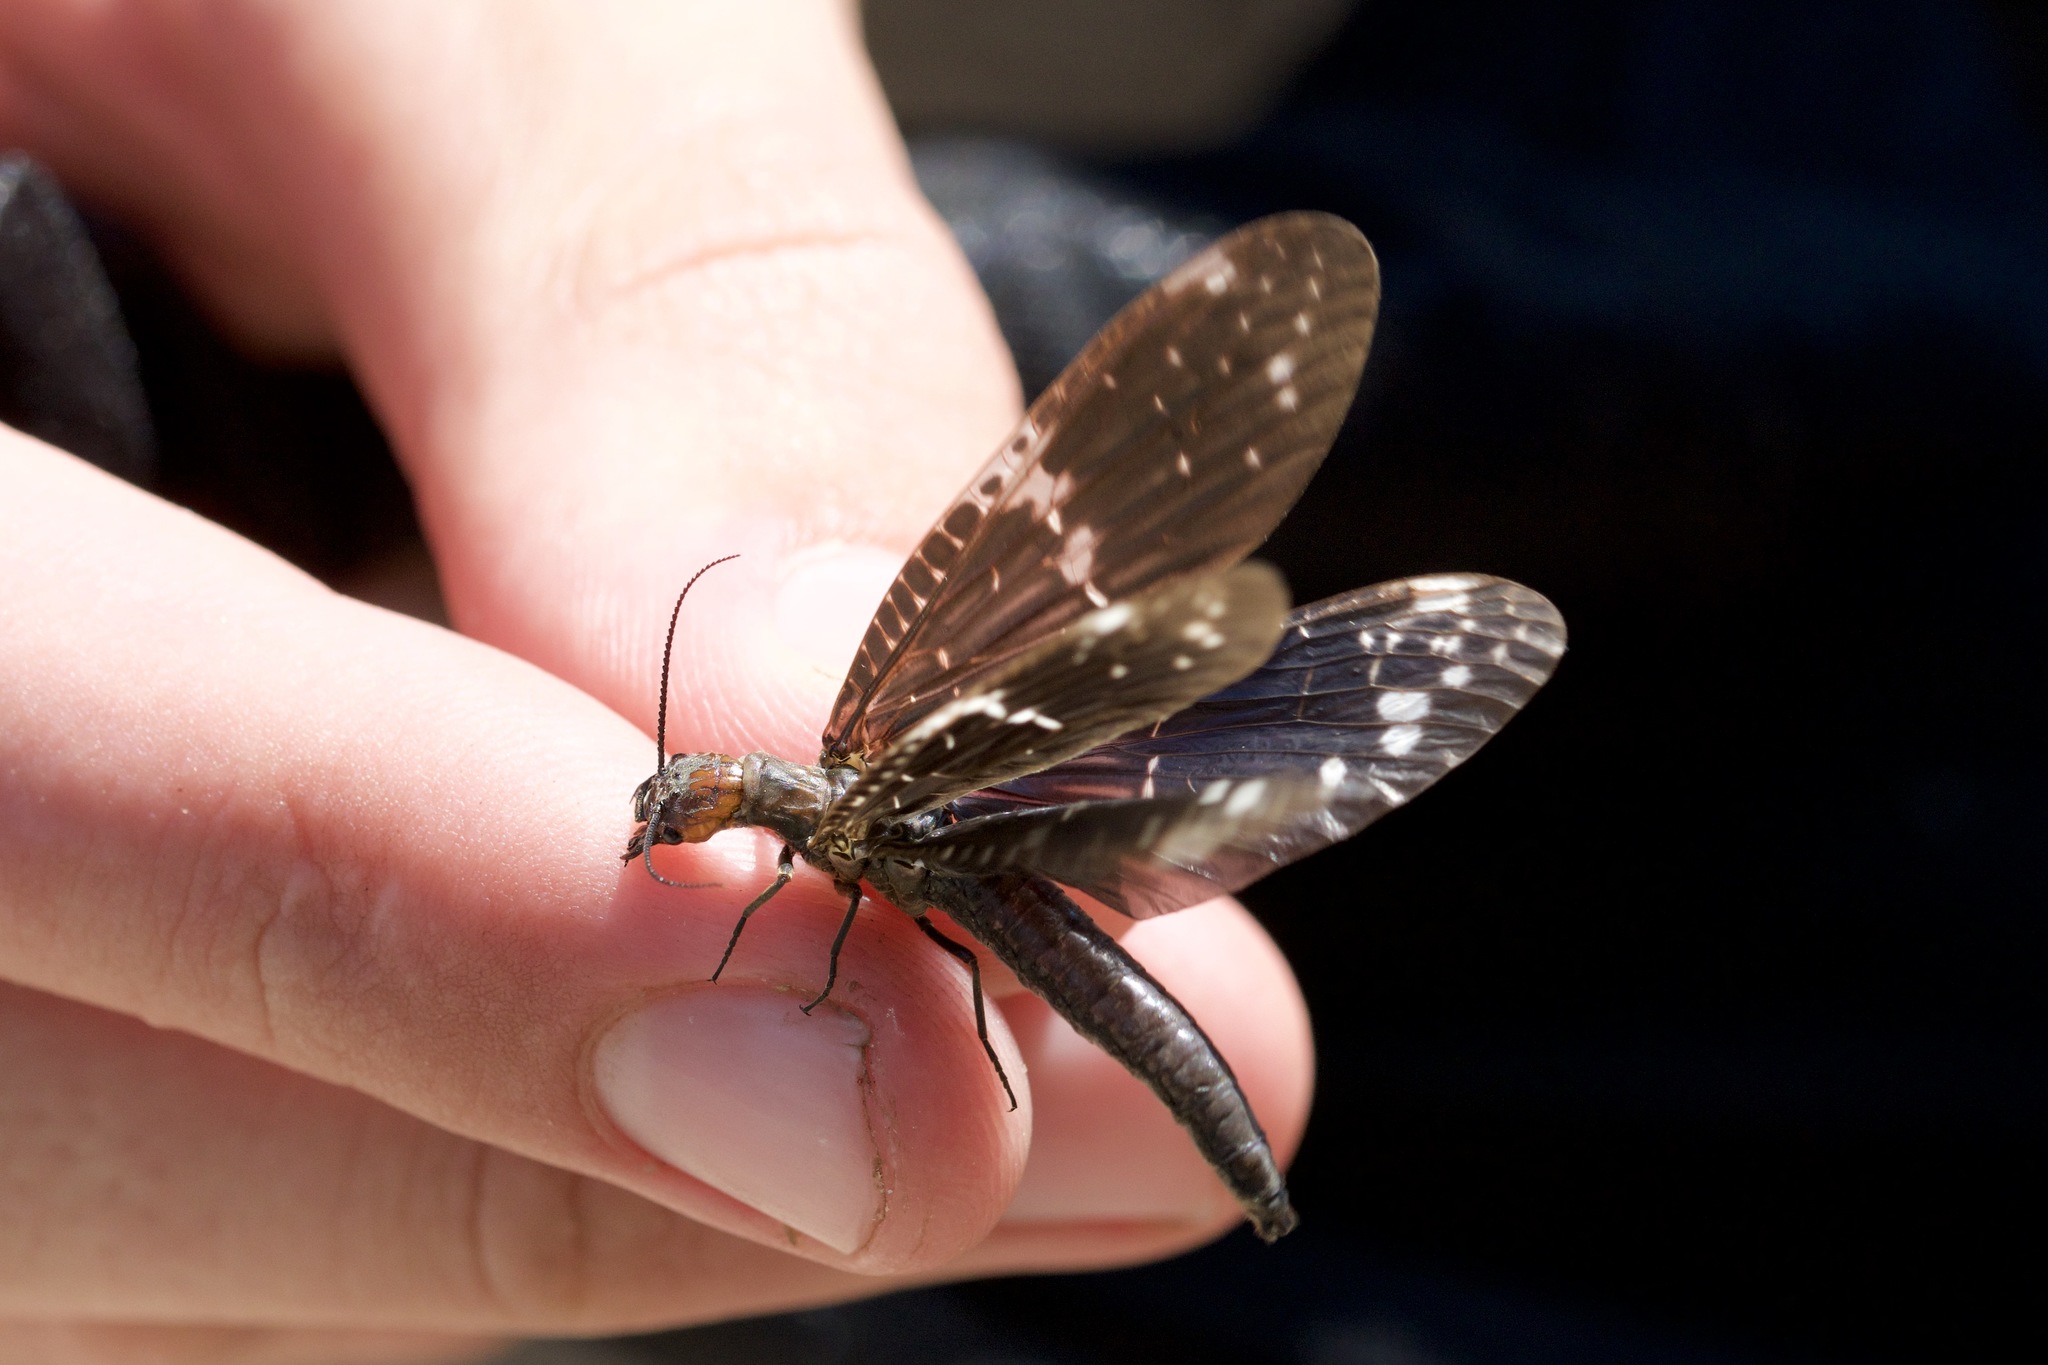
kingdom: Animalia
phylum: Arthropoda
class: Insecta
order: Megaloptera
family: Corydalidae
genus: Nigronia
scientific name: Nigronia serricornis
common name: Serrate dark fishfly
